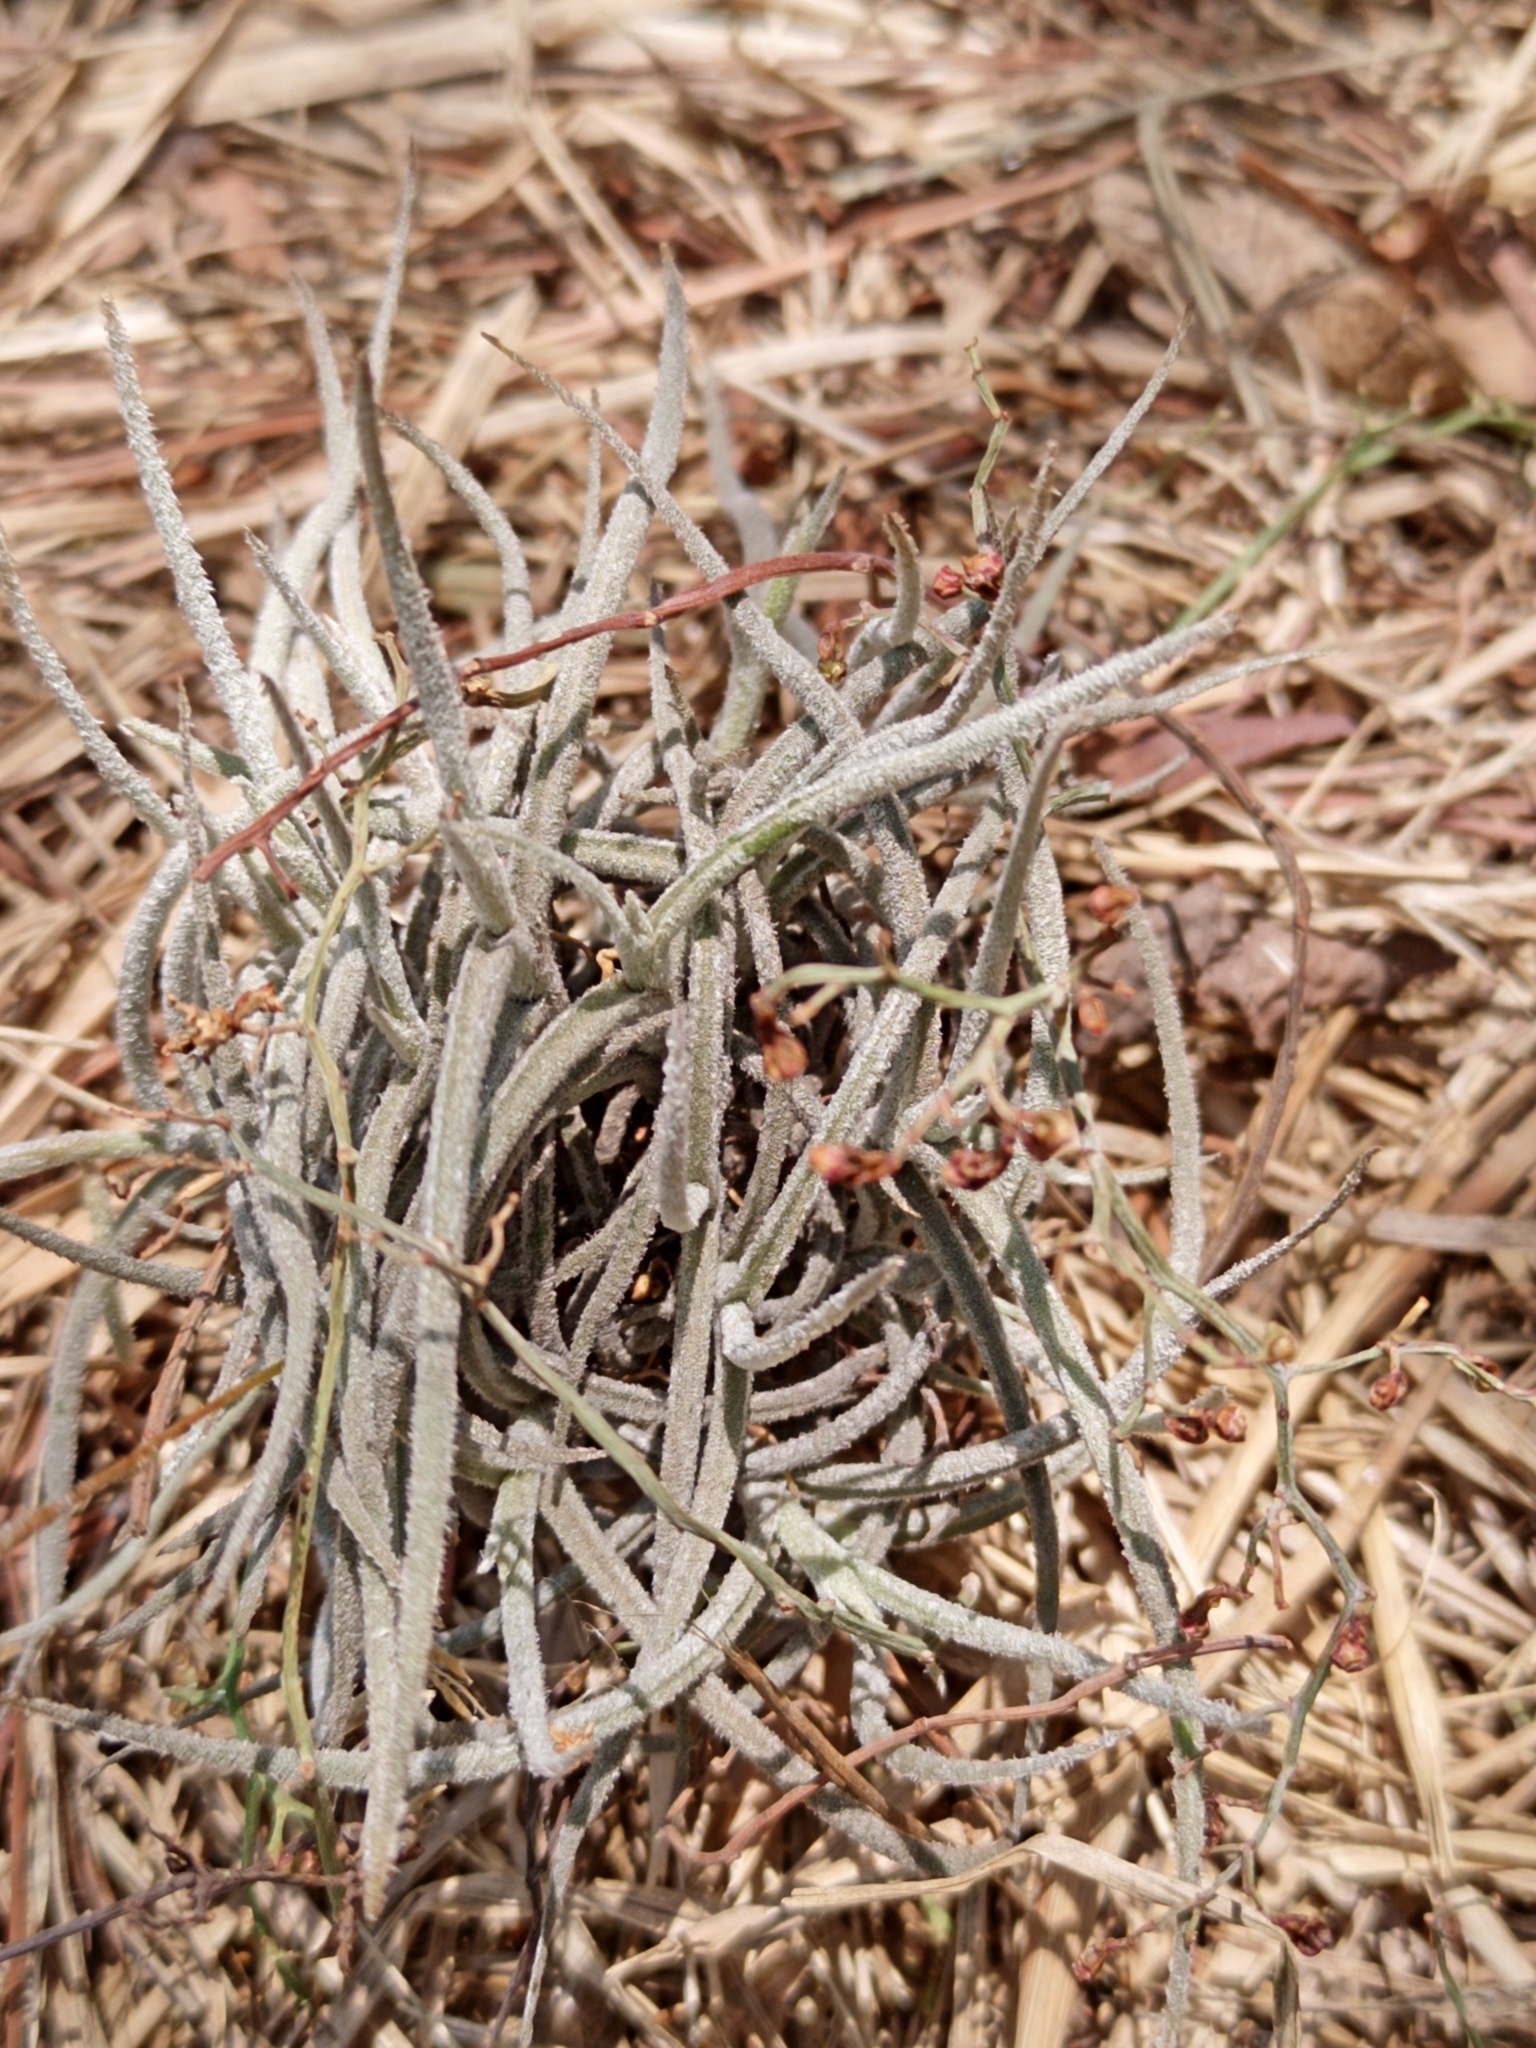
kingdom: Plantae
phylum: Tracheophyta
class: Liliopsida
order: Poales
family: Bromeliaceae
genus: Tillandsia
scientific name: Tillandsia recurvata
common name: Small ballmoss
